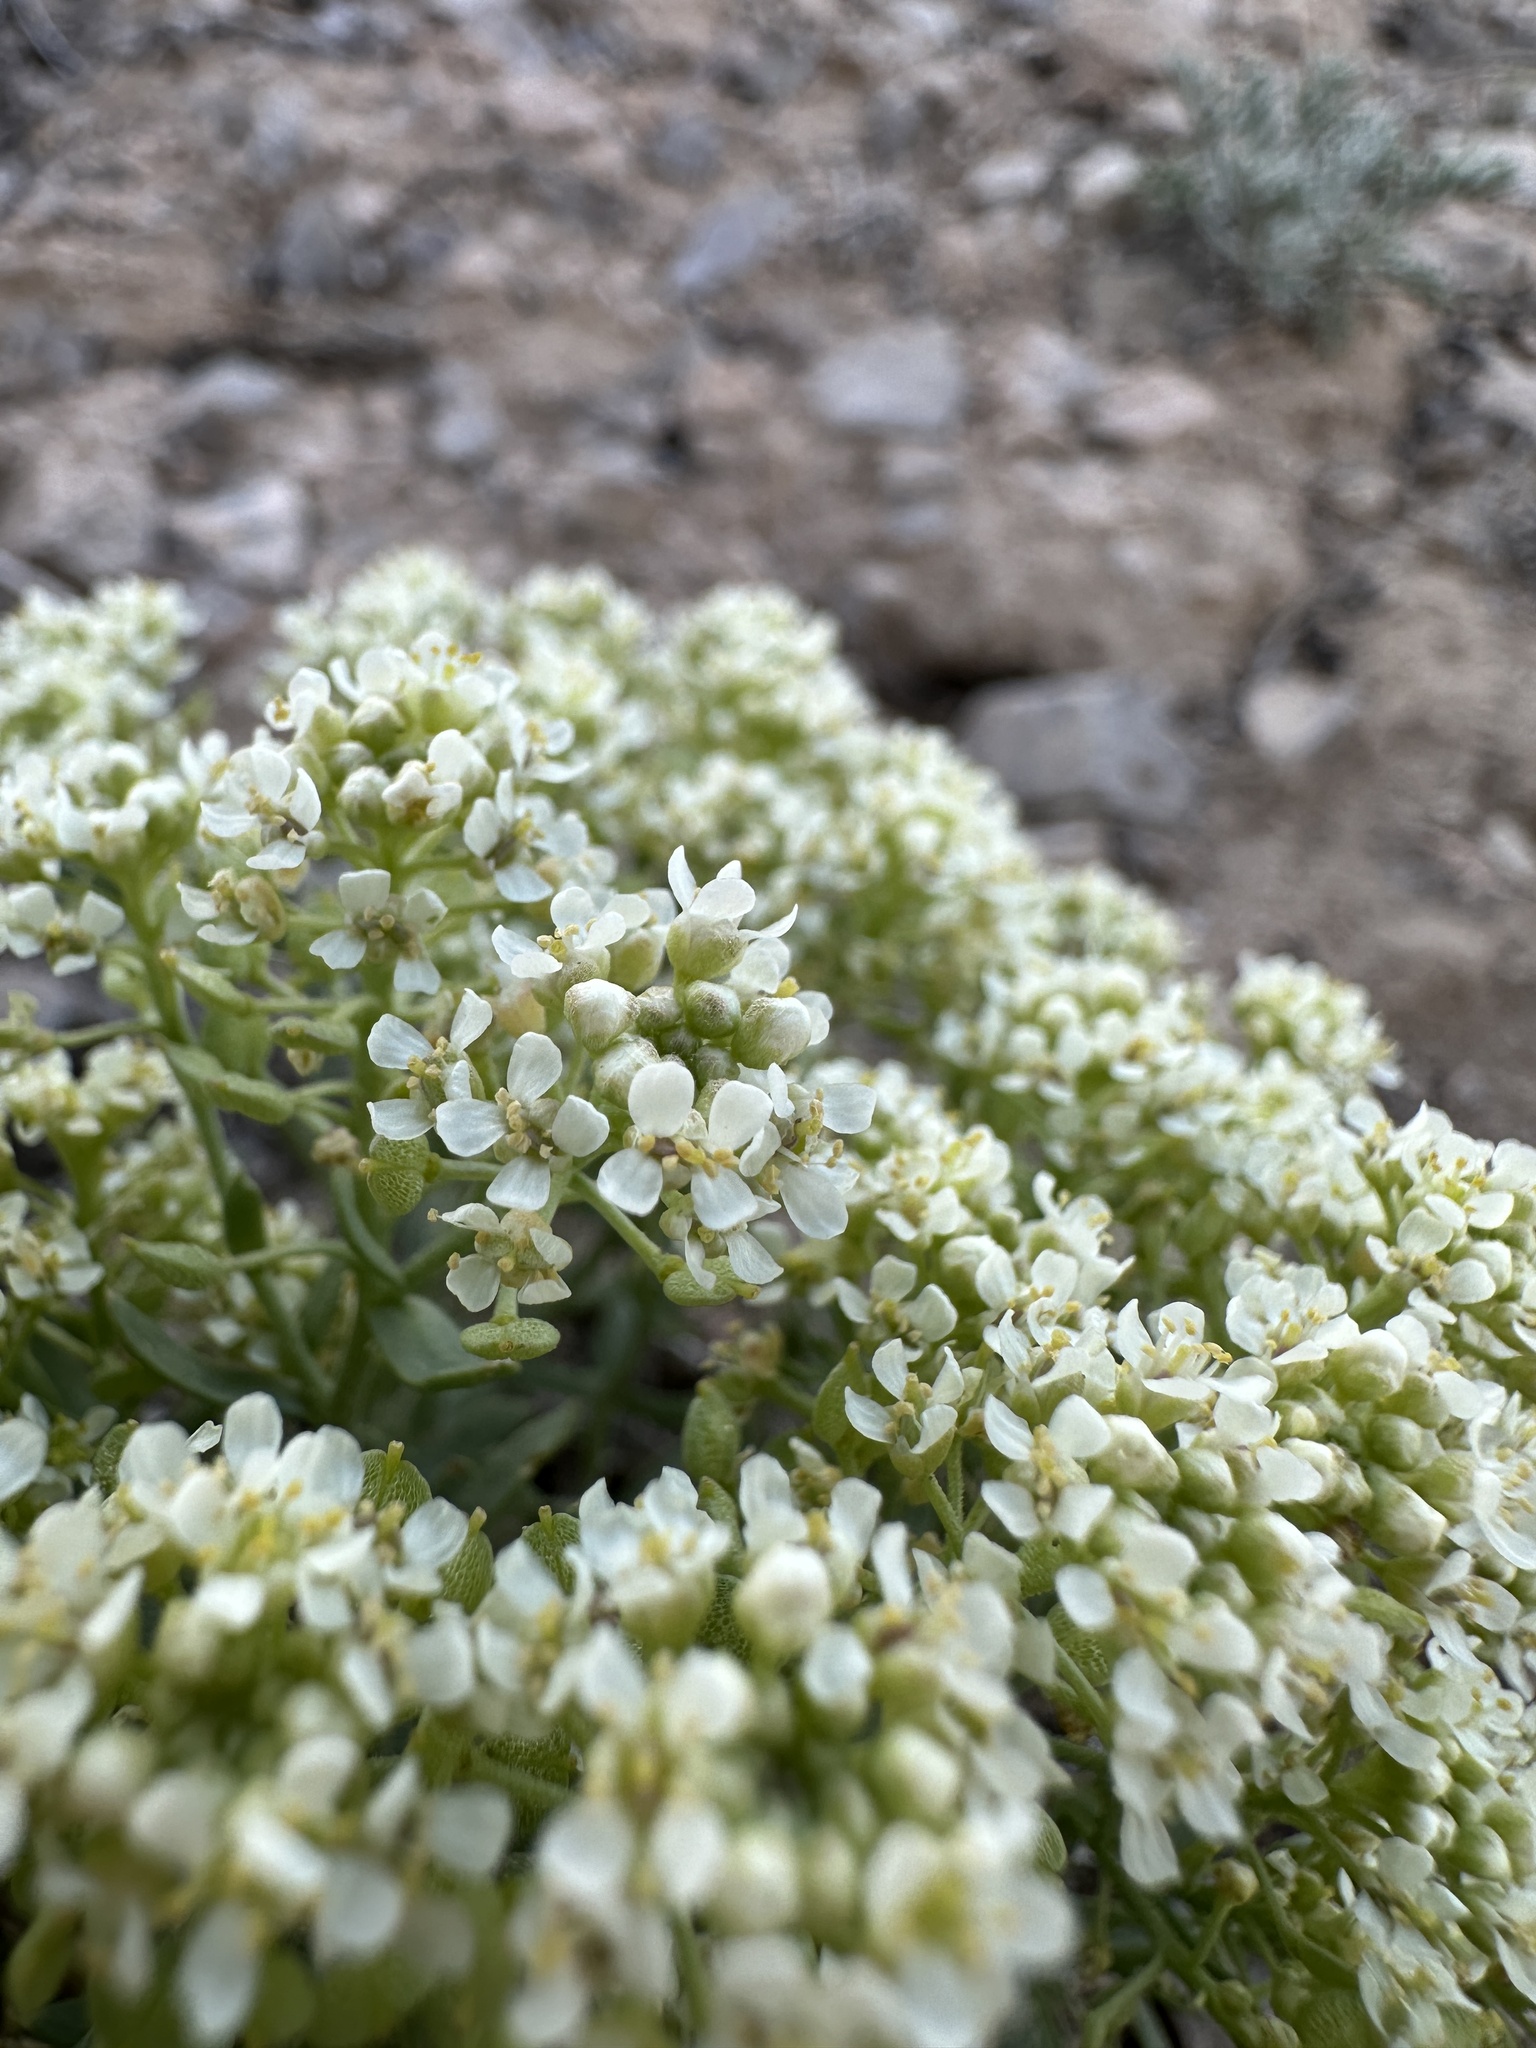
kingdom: Plantae
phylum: Tracheophyta
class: Magnoliopsida
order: Brassicales
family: Brassicaceae
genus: Lepidium
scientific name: Lepidium montanum
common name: Mountain pepperplant
